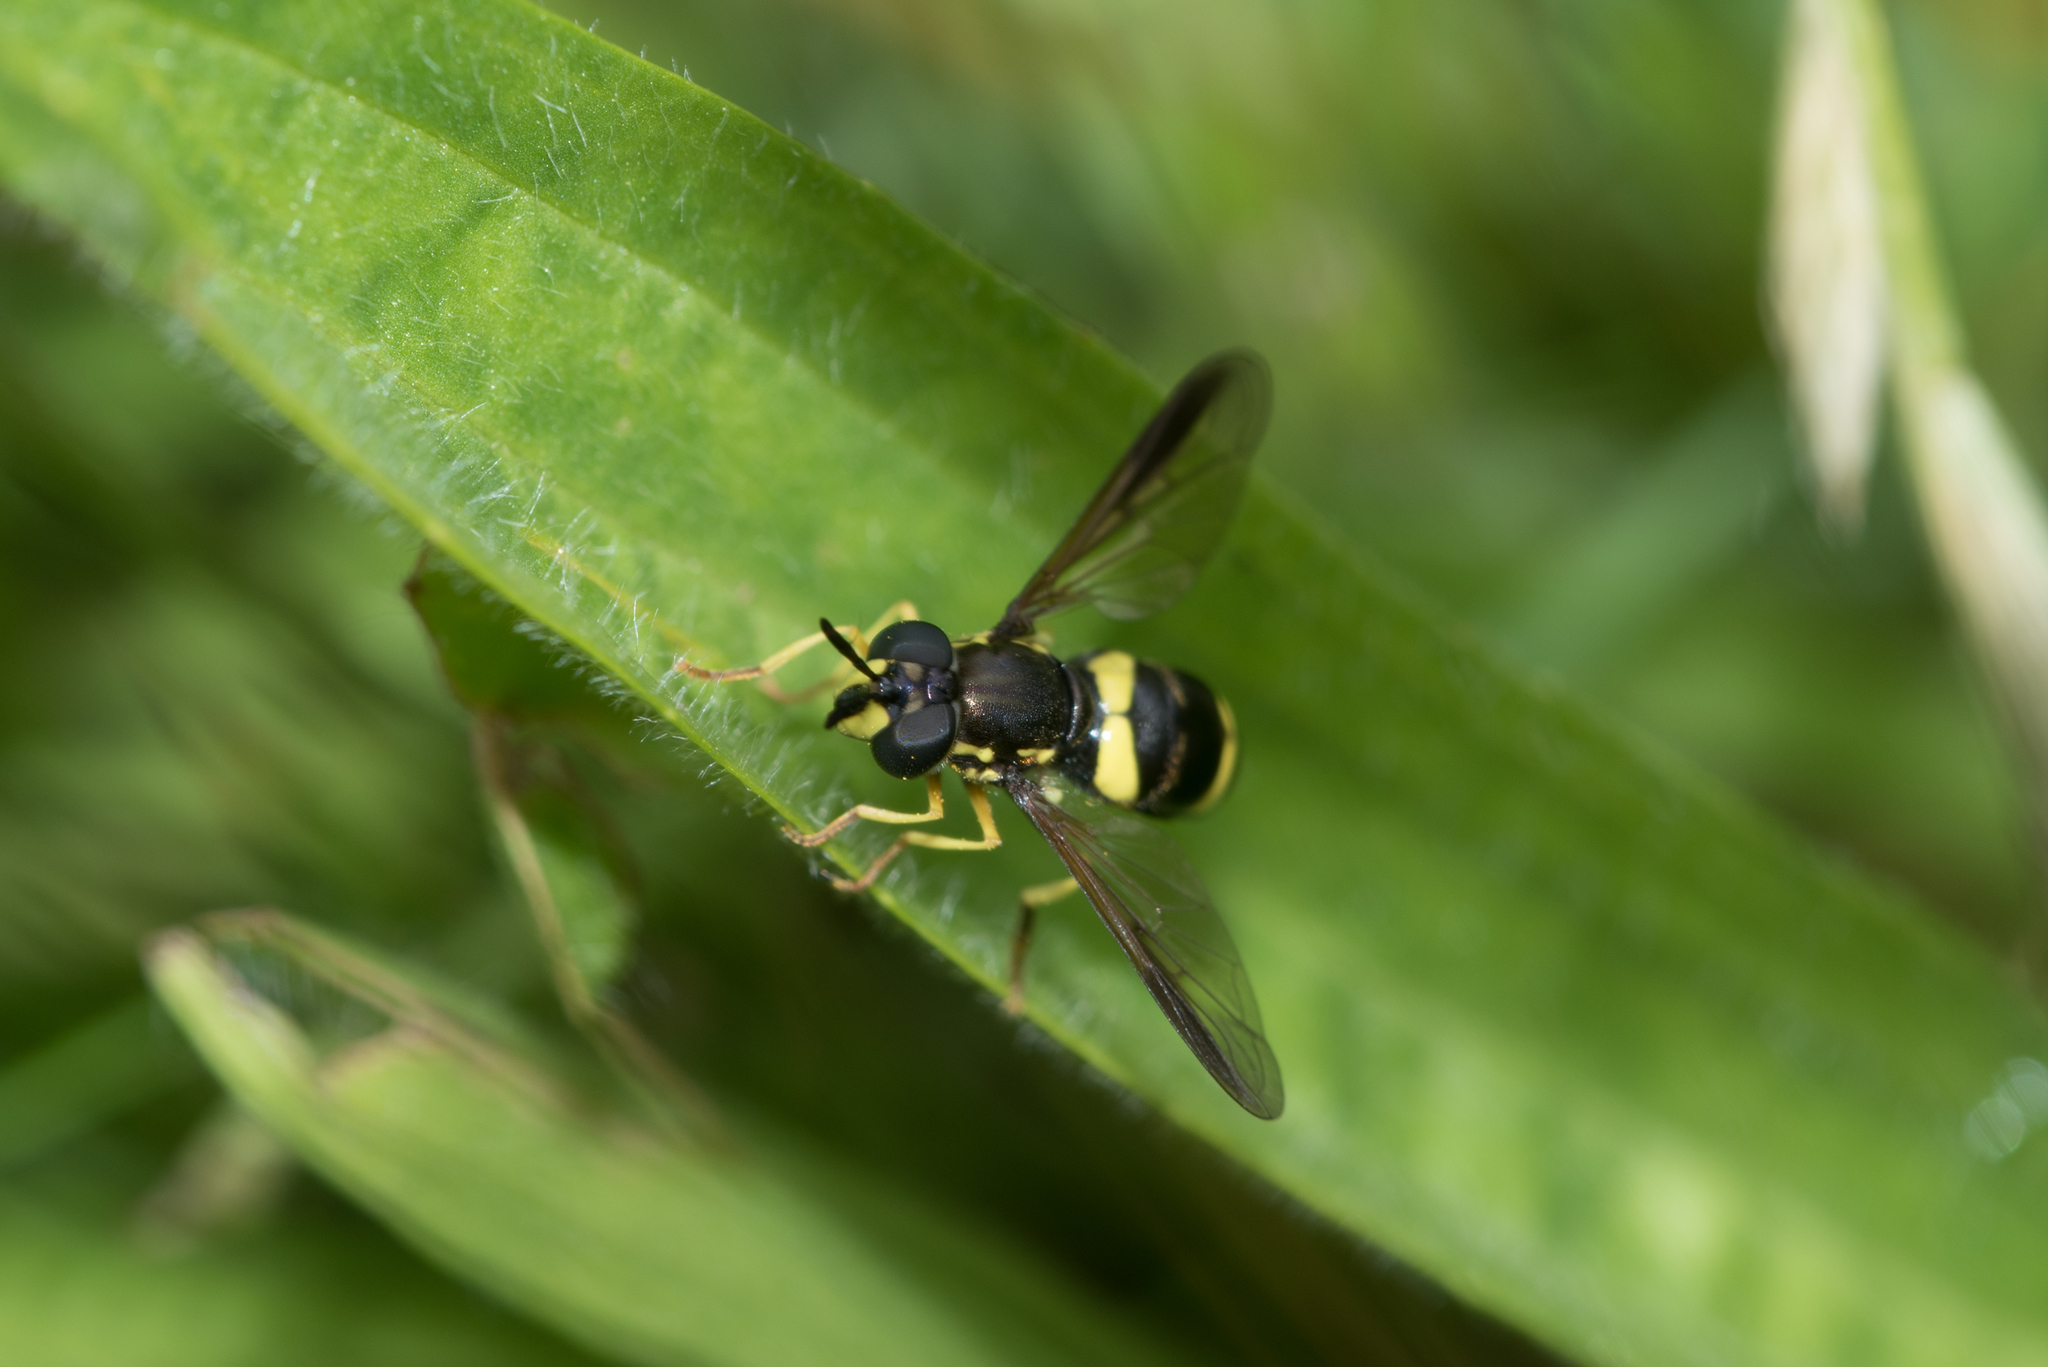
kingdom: Animalia
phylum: Arthropoda
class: Insecta
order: Diptera
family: Syrphidae
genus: Chrysotoxum
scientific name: Chrysotoxum bicincta
